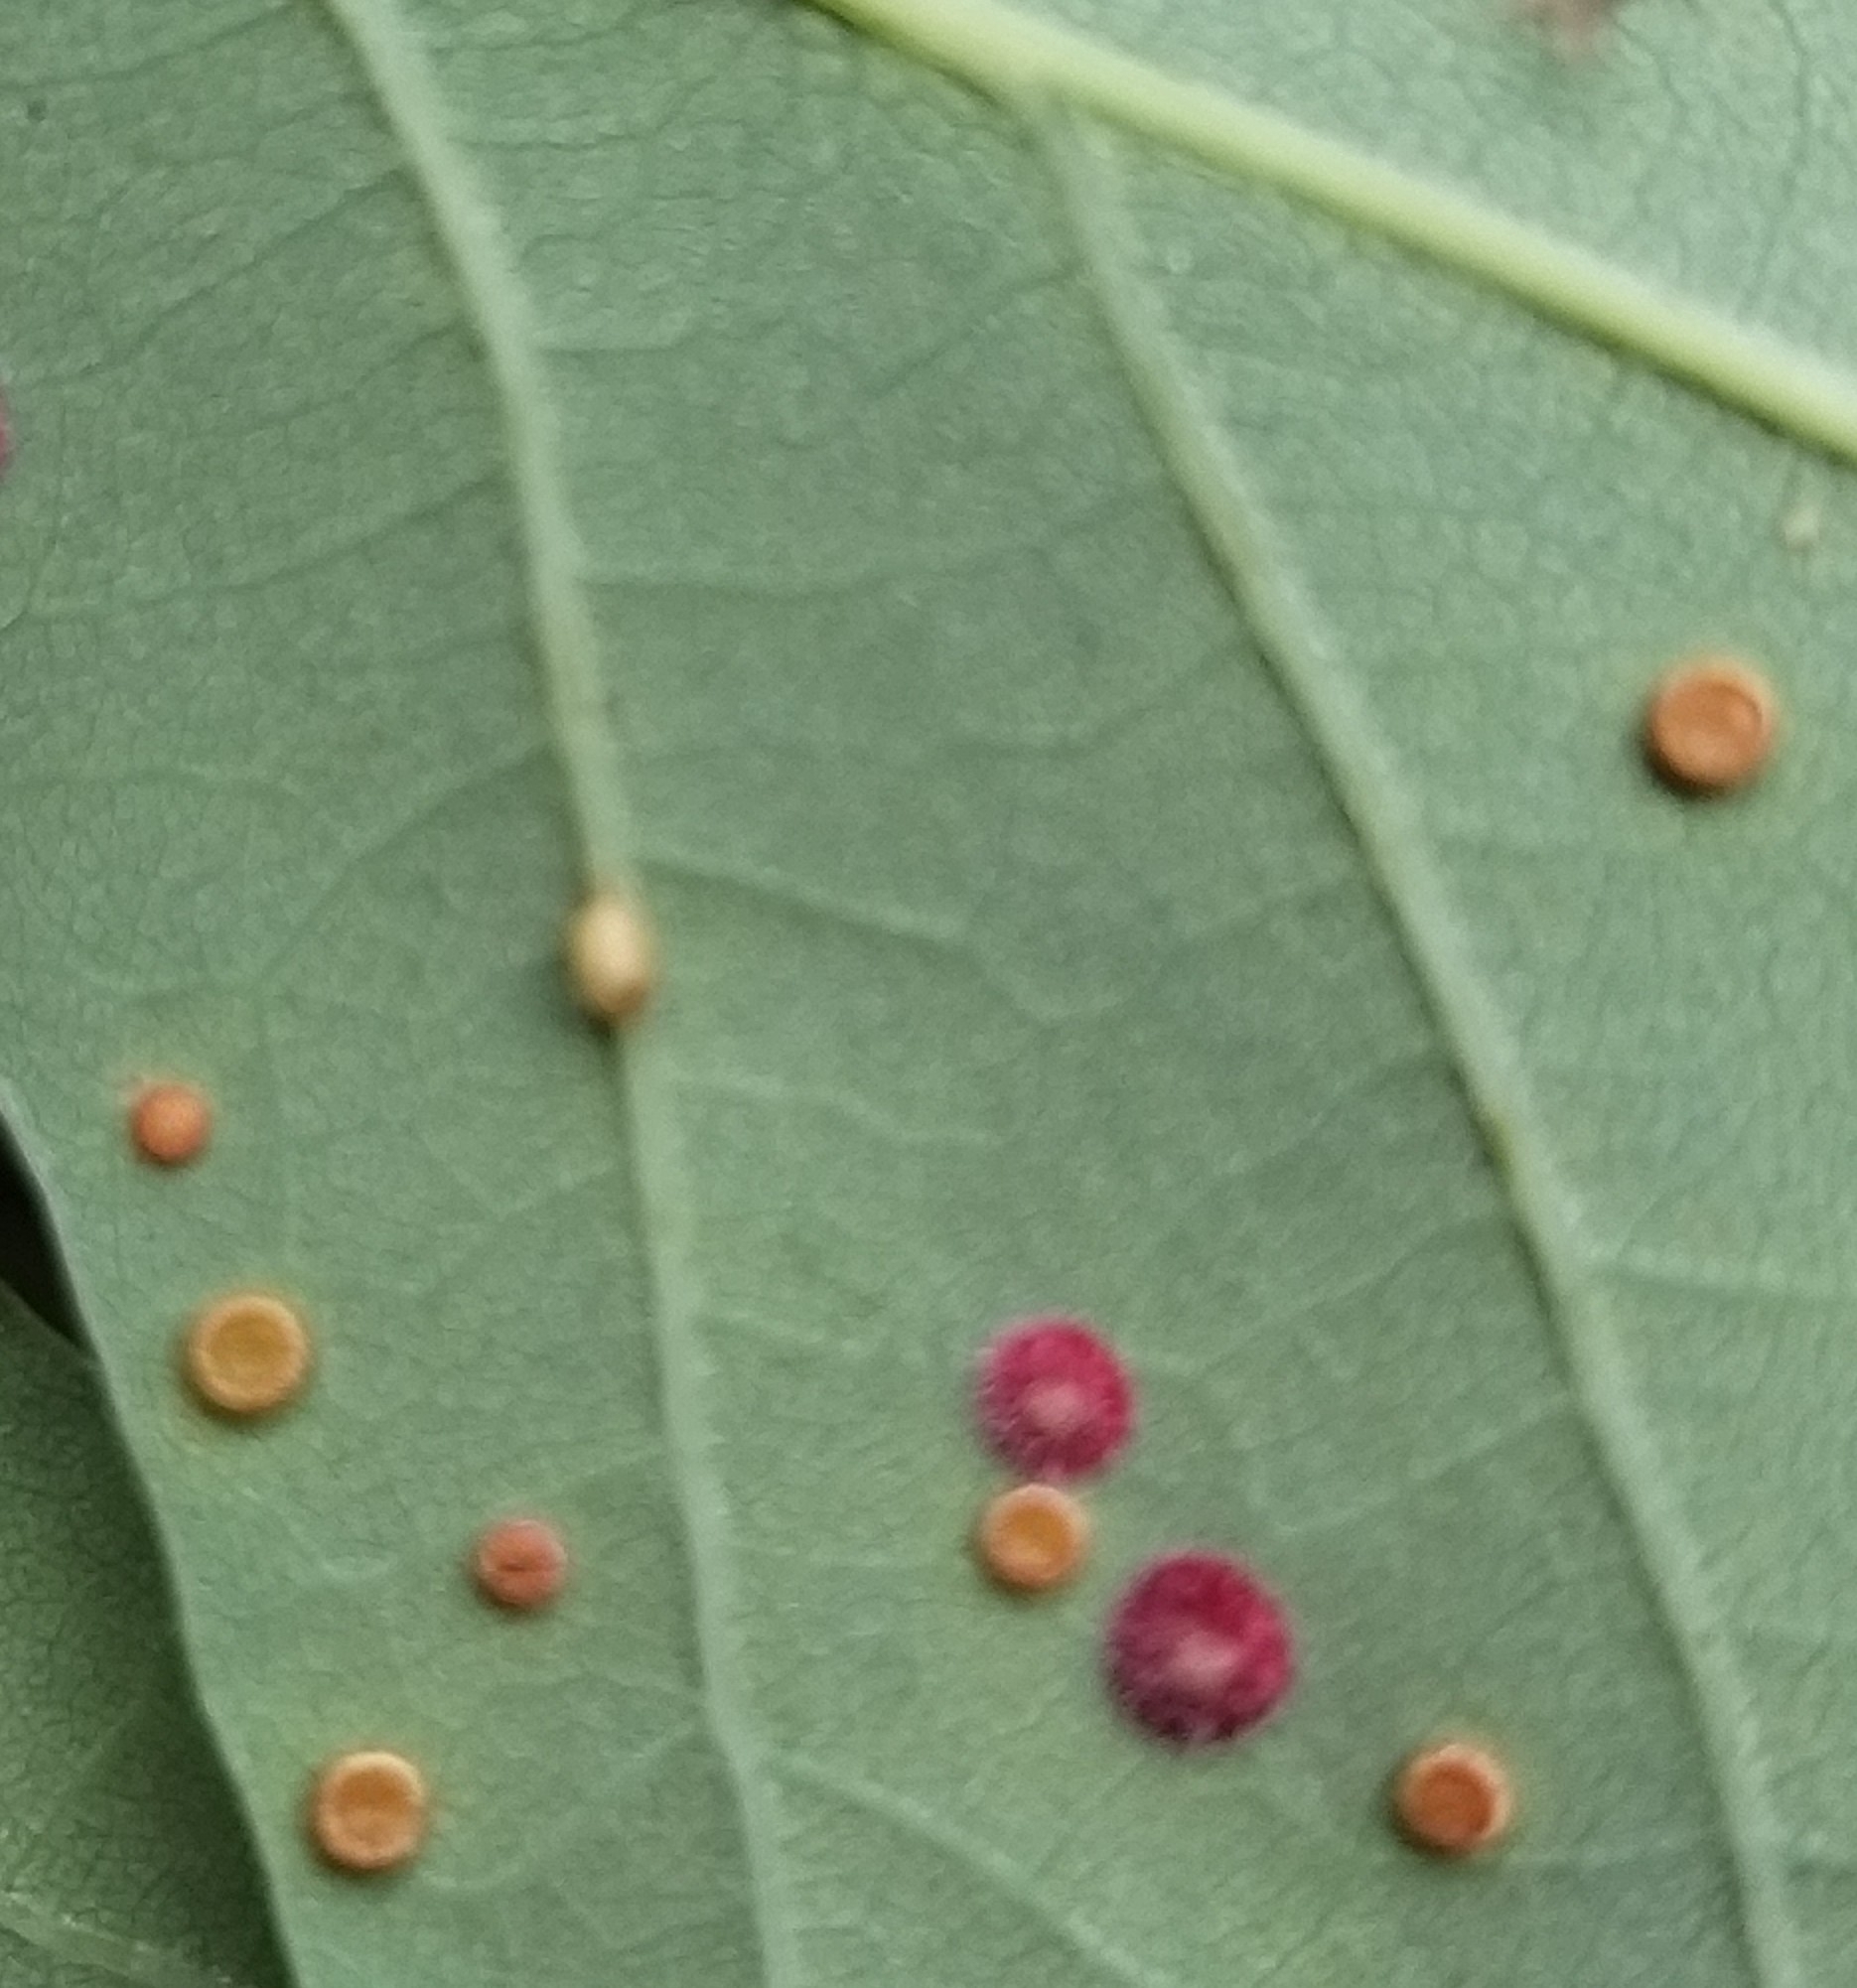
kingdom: Animalia
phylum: Arthropoda
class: Insecta
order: Hymenoptera
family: Cynipidae
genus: Neuroterus
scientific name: Neuroterus numismalis
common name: Silk-button spangle gall
